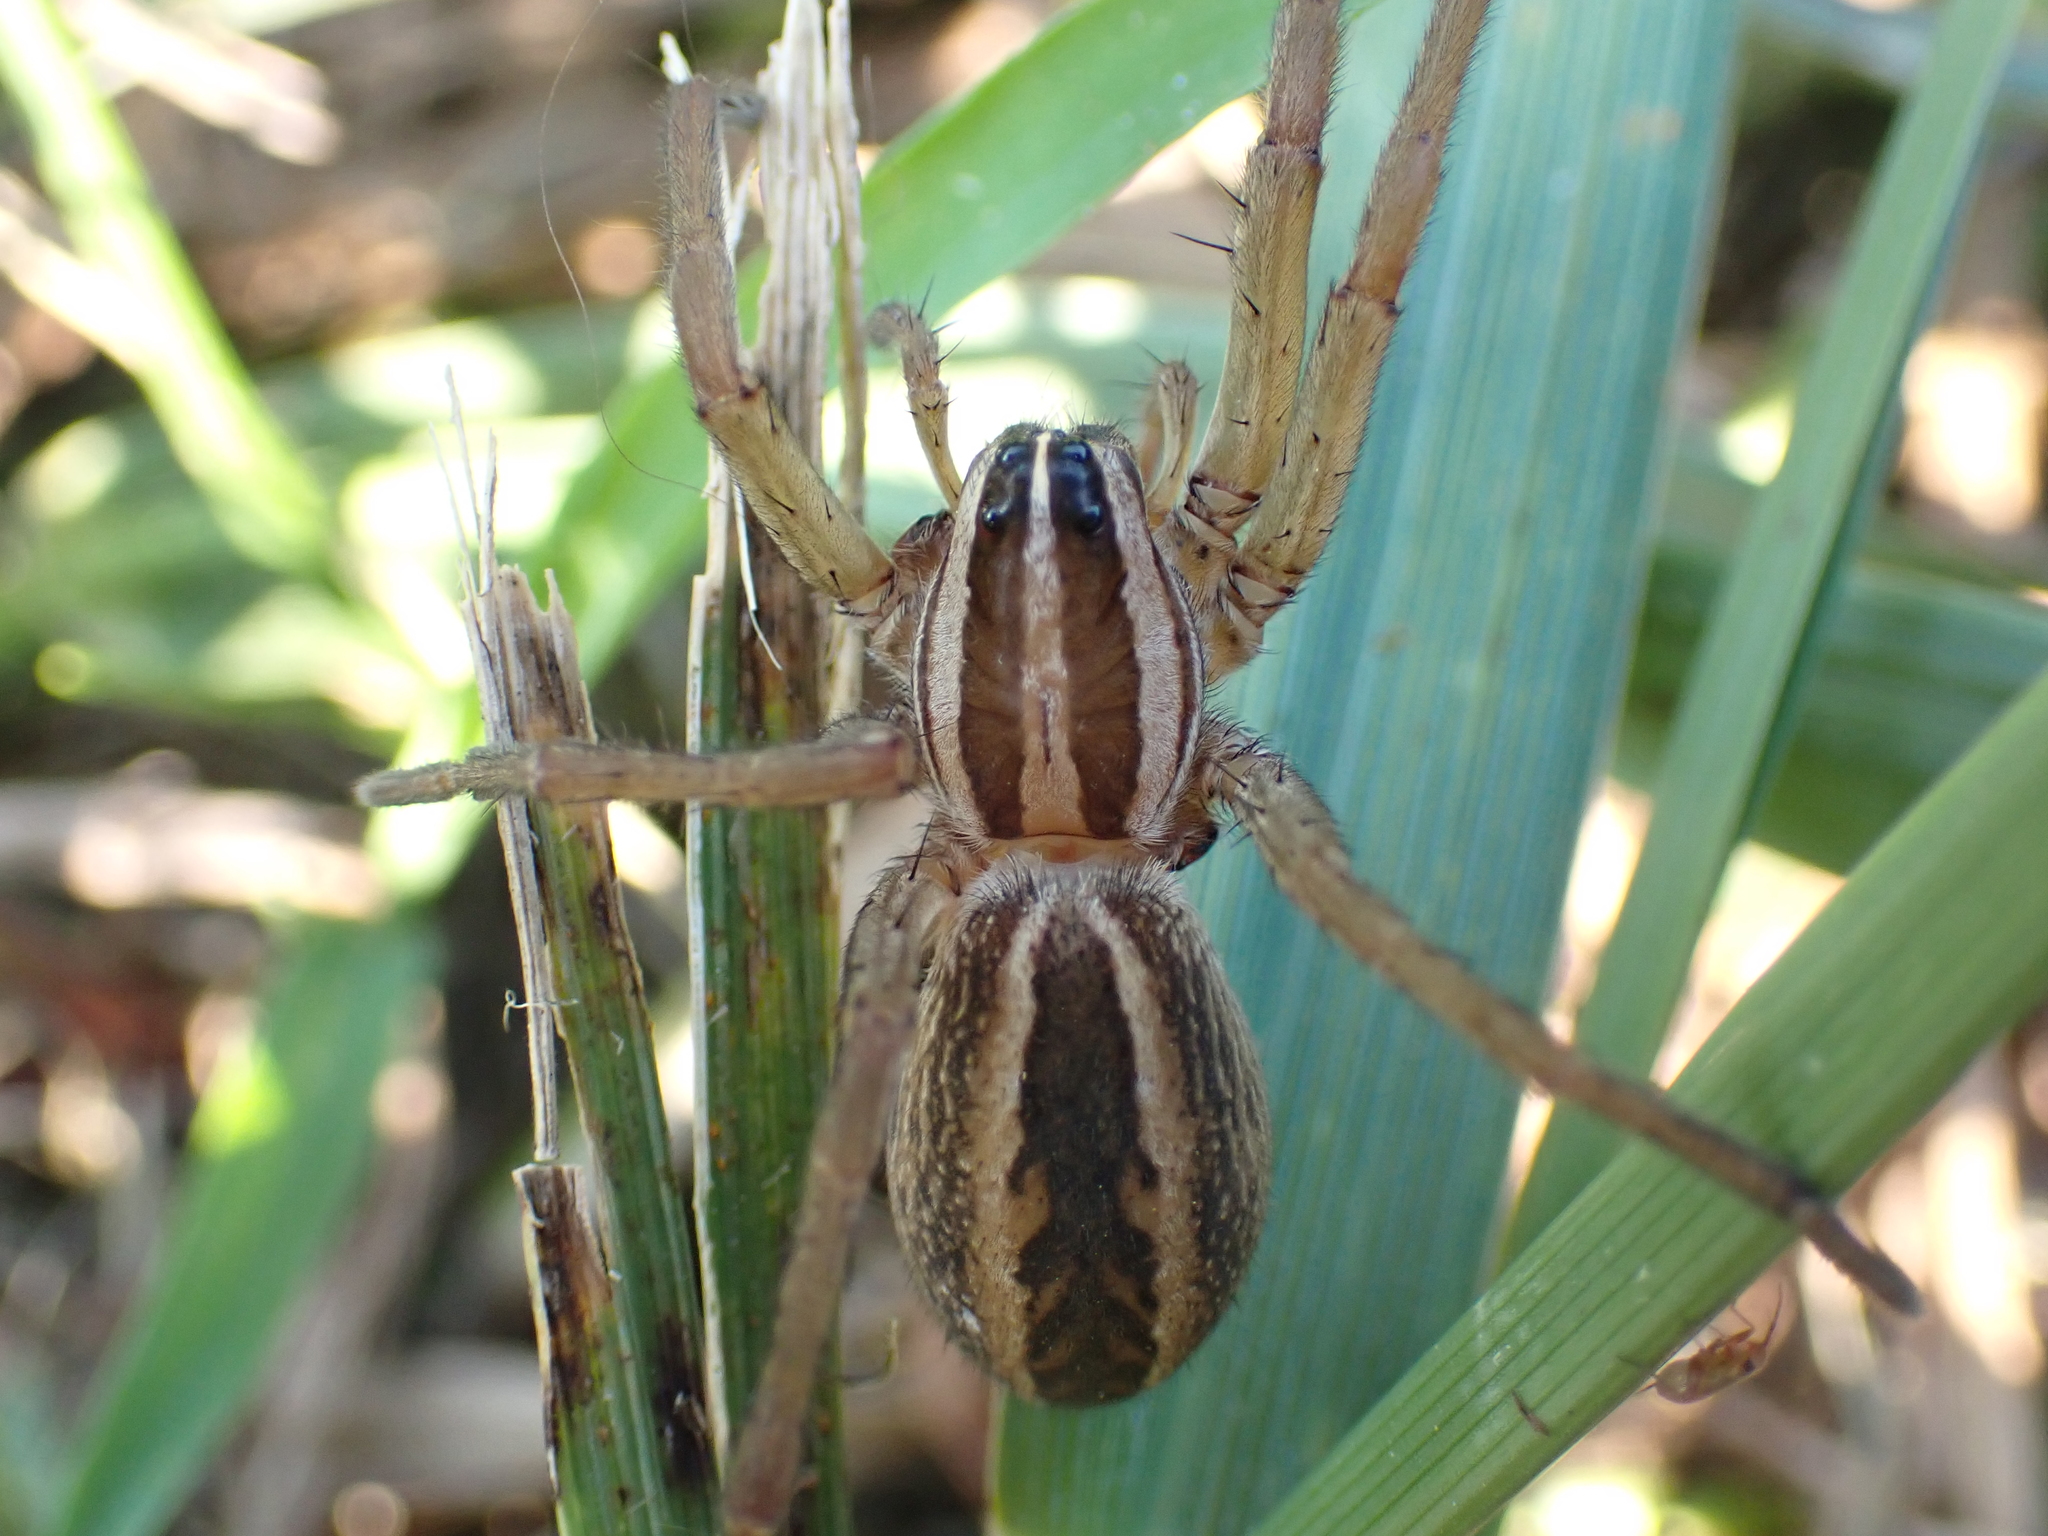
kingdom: Animalia
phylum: Arthropoda
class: Arachnida
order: Araneae
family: Lycosidae
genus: Rabidosa
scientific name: Rabidosa rabida
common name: Rabid wolf spider
